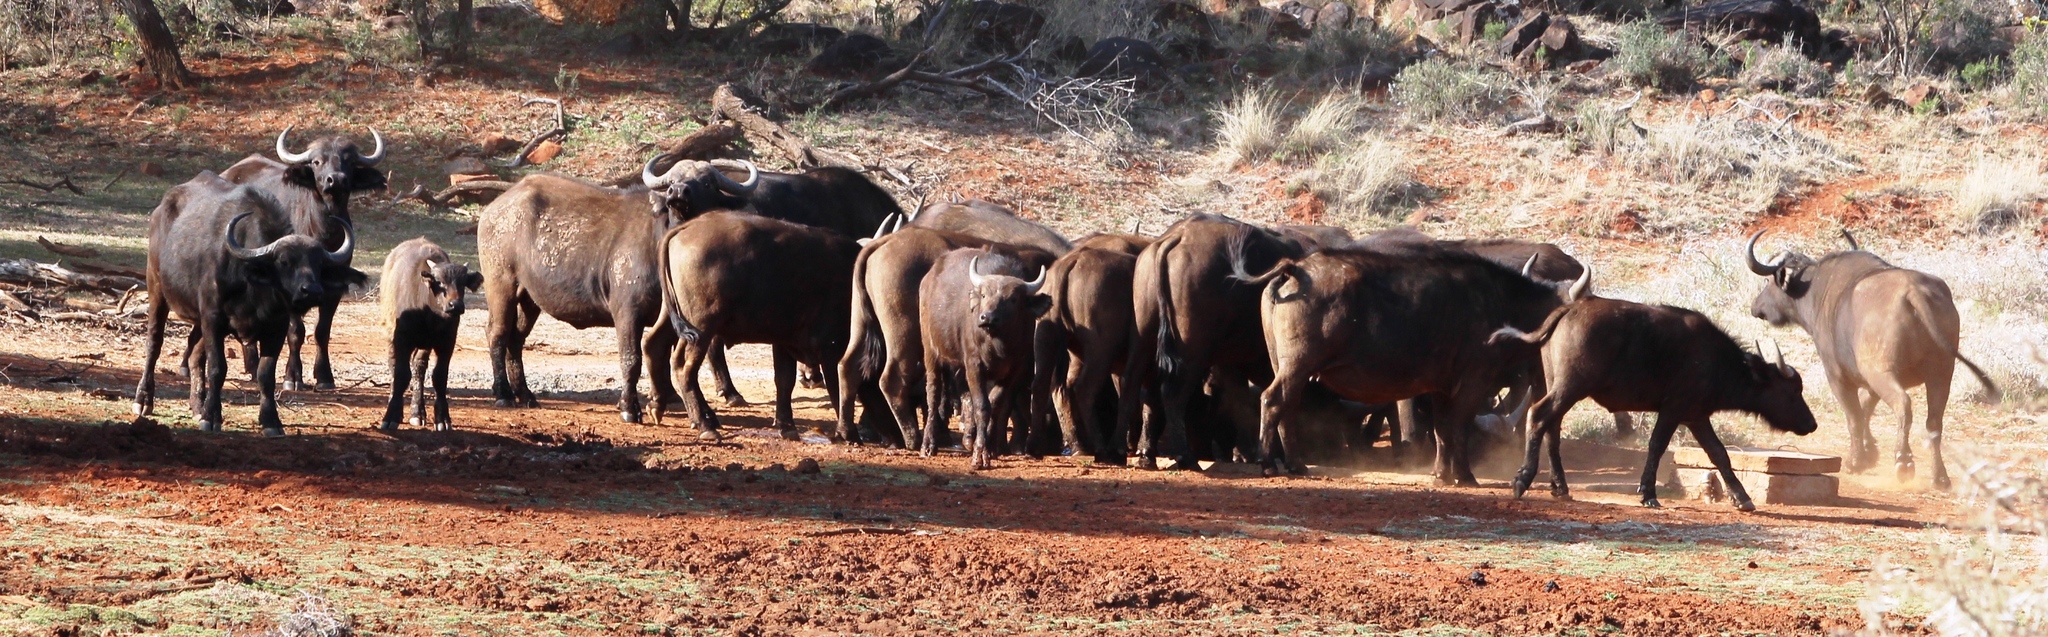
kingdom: Animalia
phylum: Chordata
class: Mammalia
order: Artiodactyla
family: Bovidae
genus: Syncerus
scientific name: Syncerus caffer
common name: African buffalo
